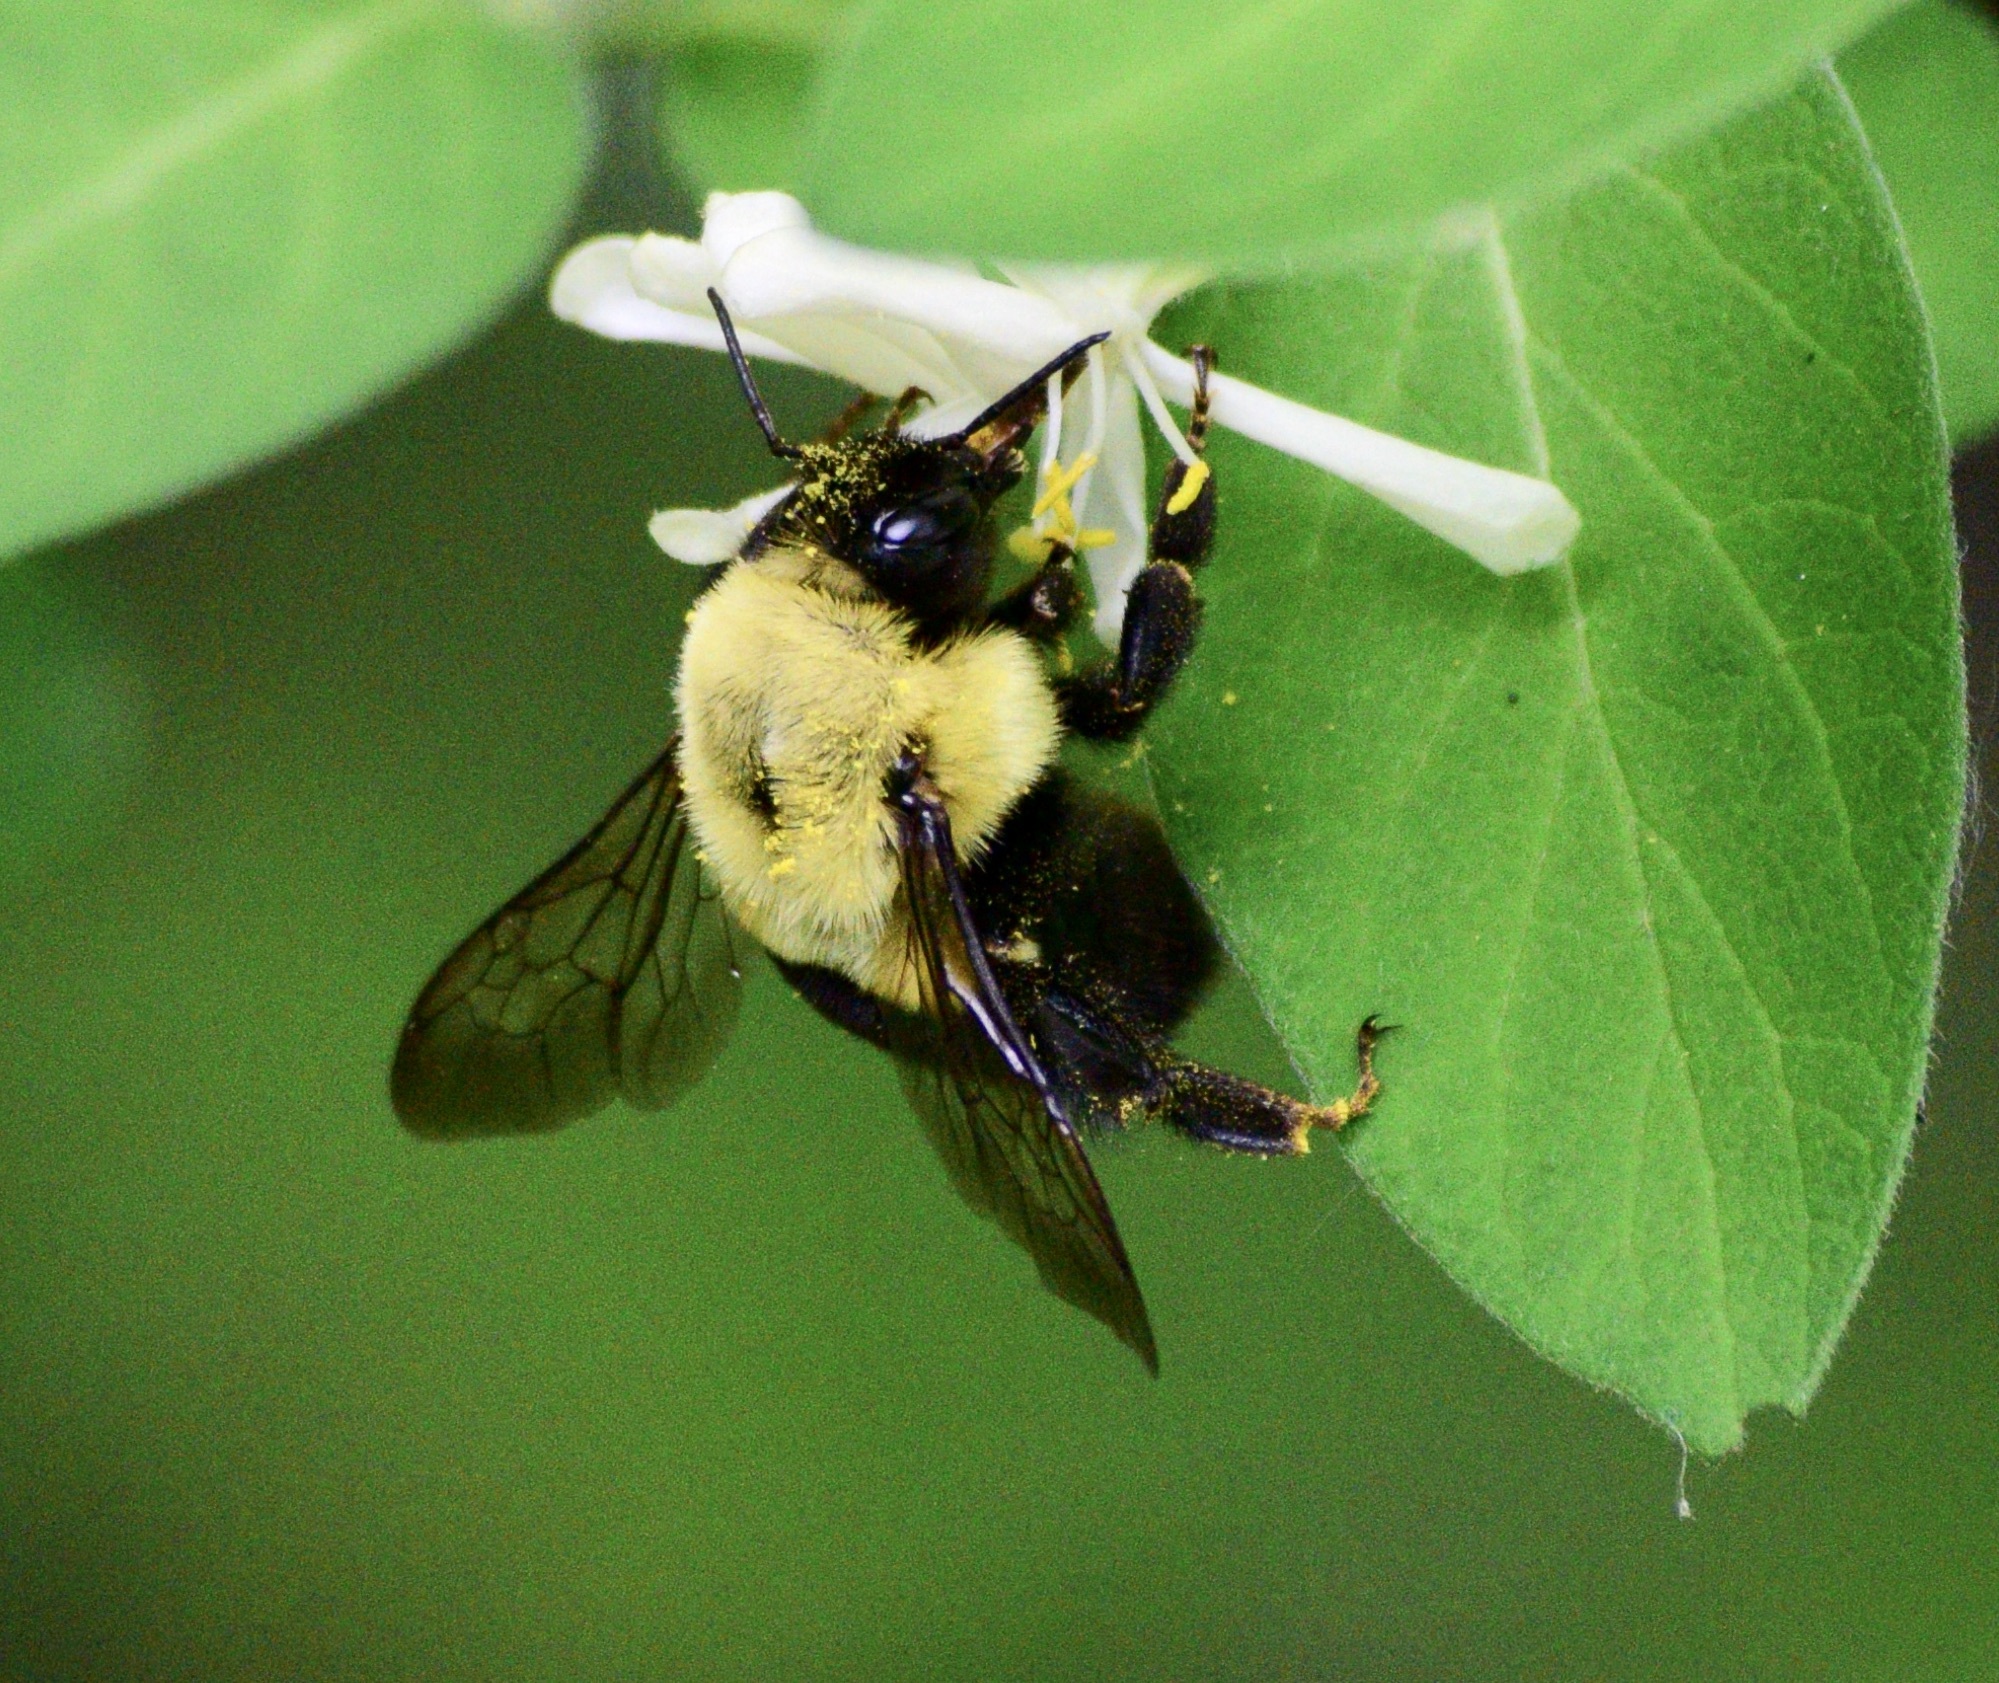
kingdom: Animalia
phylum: Arthropoda
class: Insecta
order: Hymenoptera
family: Apidae
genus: Bombus
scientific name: Bombus impatiens
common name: Common eastern bumble bee
